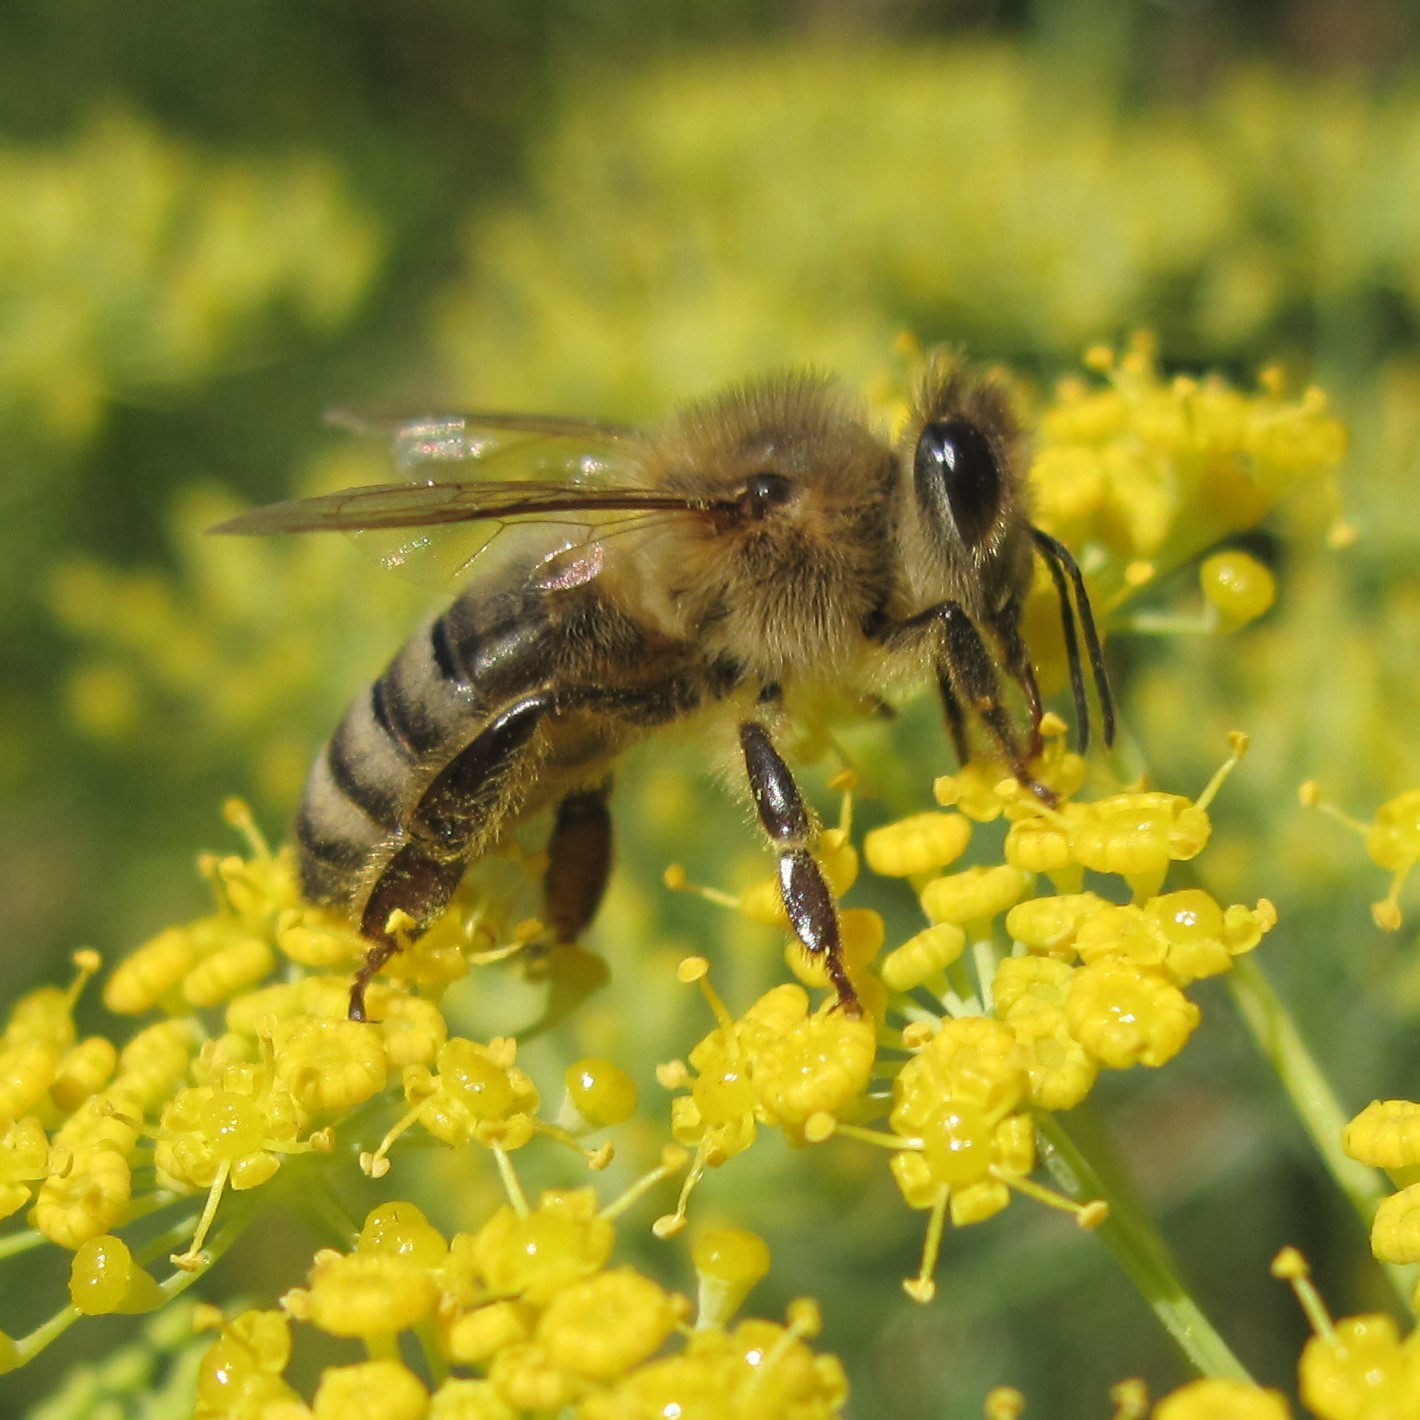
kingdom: Animalia
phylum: Arthropoda
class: Insecta
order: Hymenoptera
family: Apidae
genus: Apis
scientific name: Apis mellifera
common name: Honey bee
